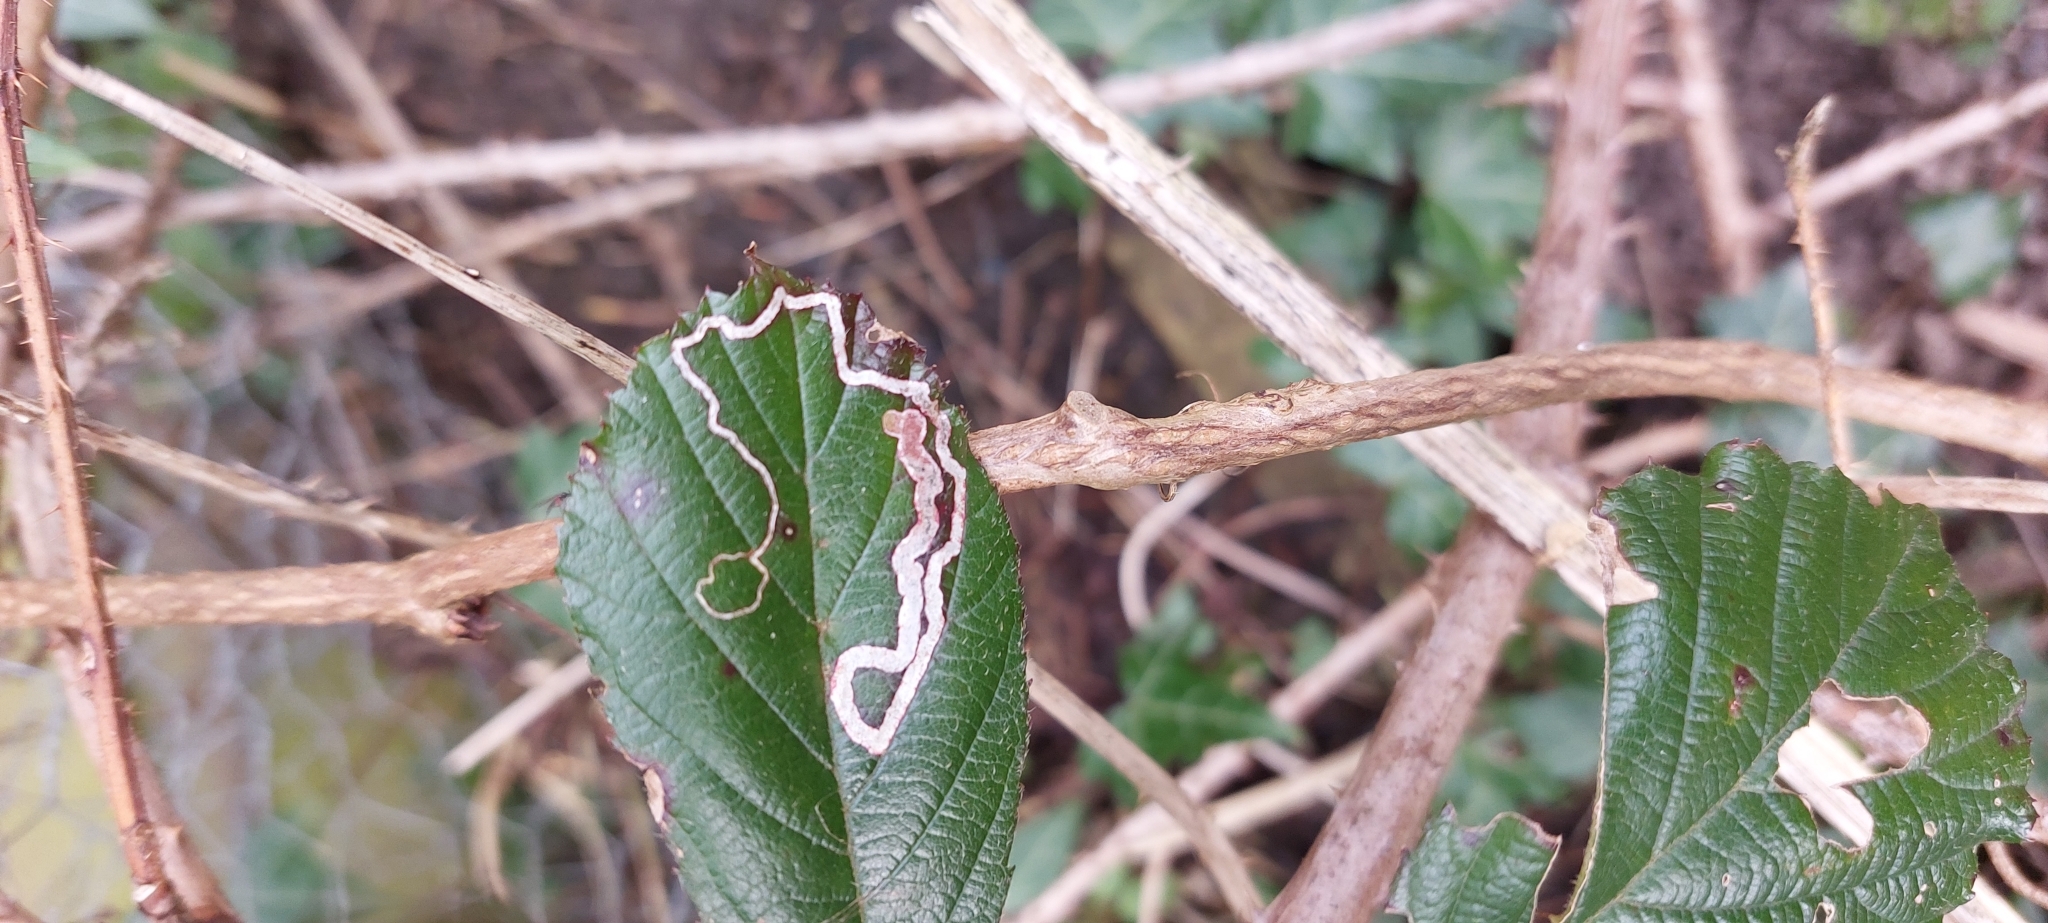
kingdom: Animalia
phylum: Arthropoda
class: Insecta
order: Lepidoptera
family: Nepticulidae
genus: Stigmella
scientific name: Stigmella aurella
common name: Golden pigmy
